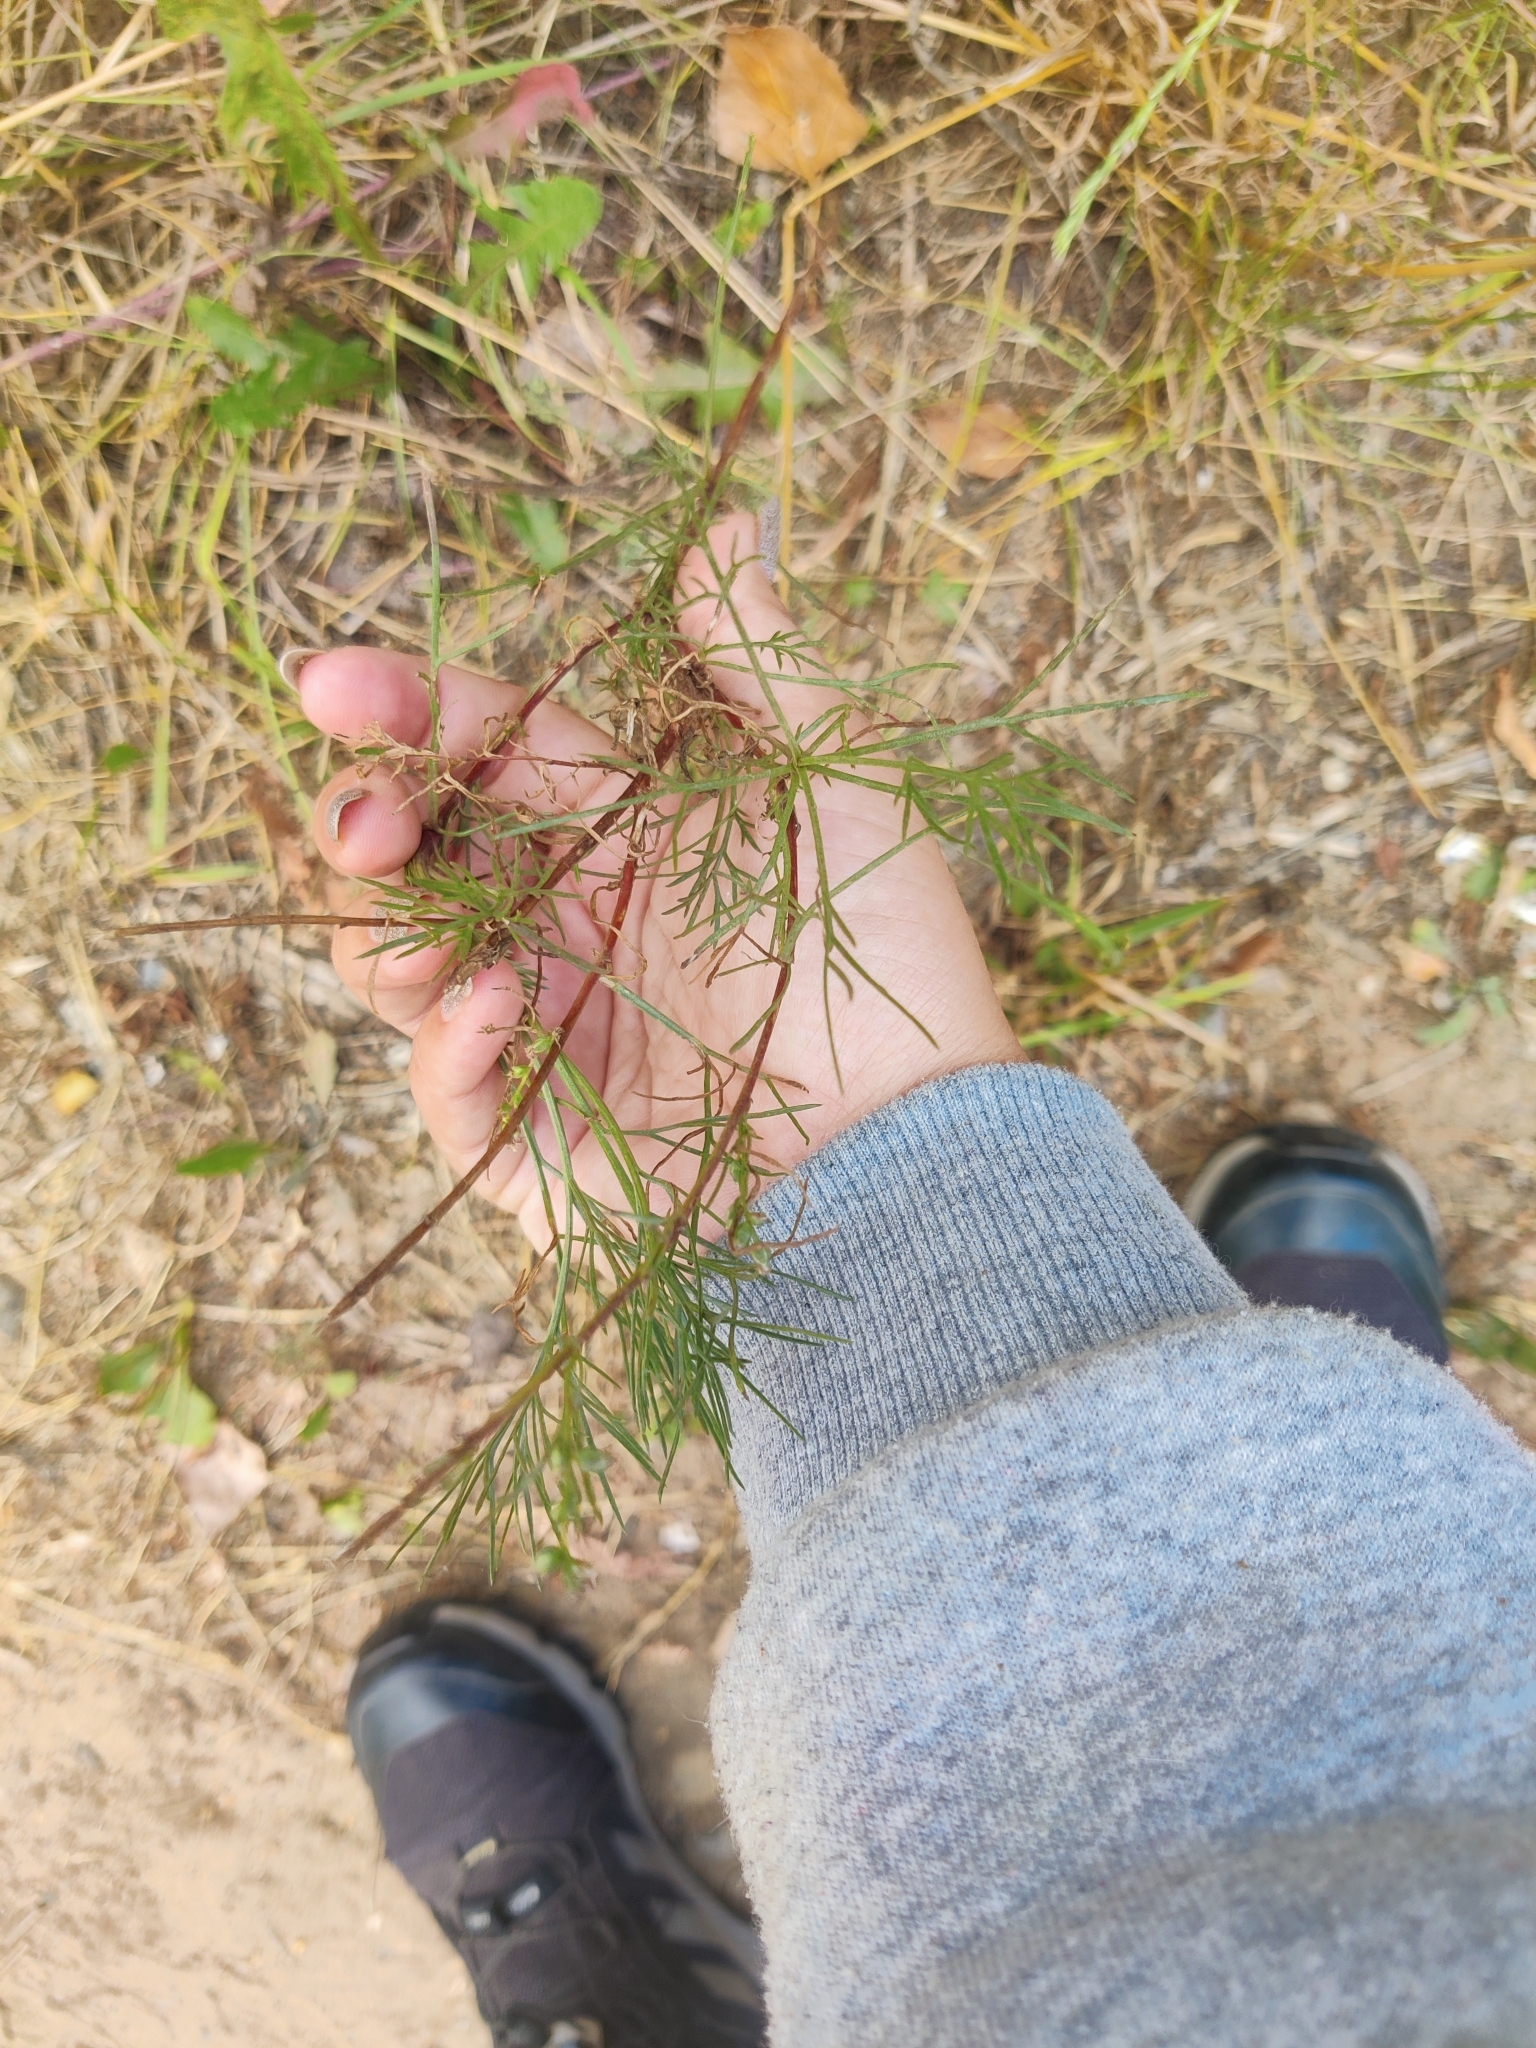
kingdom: Plantae
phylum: Tracheophyta
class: Magnoliopsida
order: Asterales
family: Asteraceae
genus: Artemisia
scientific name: Artemisia campestris
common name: Field wormwood
